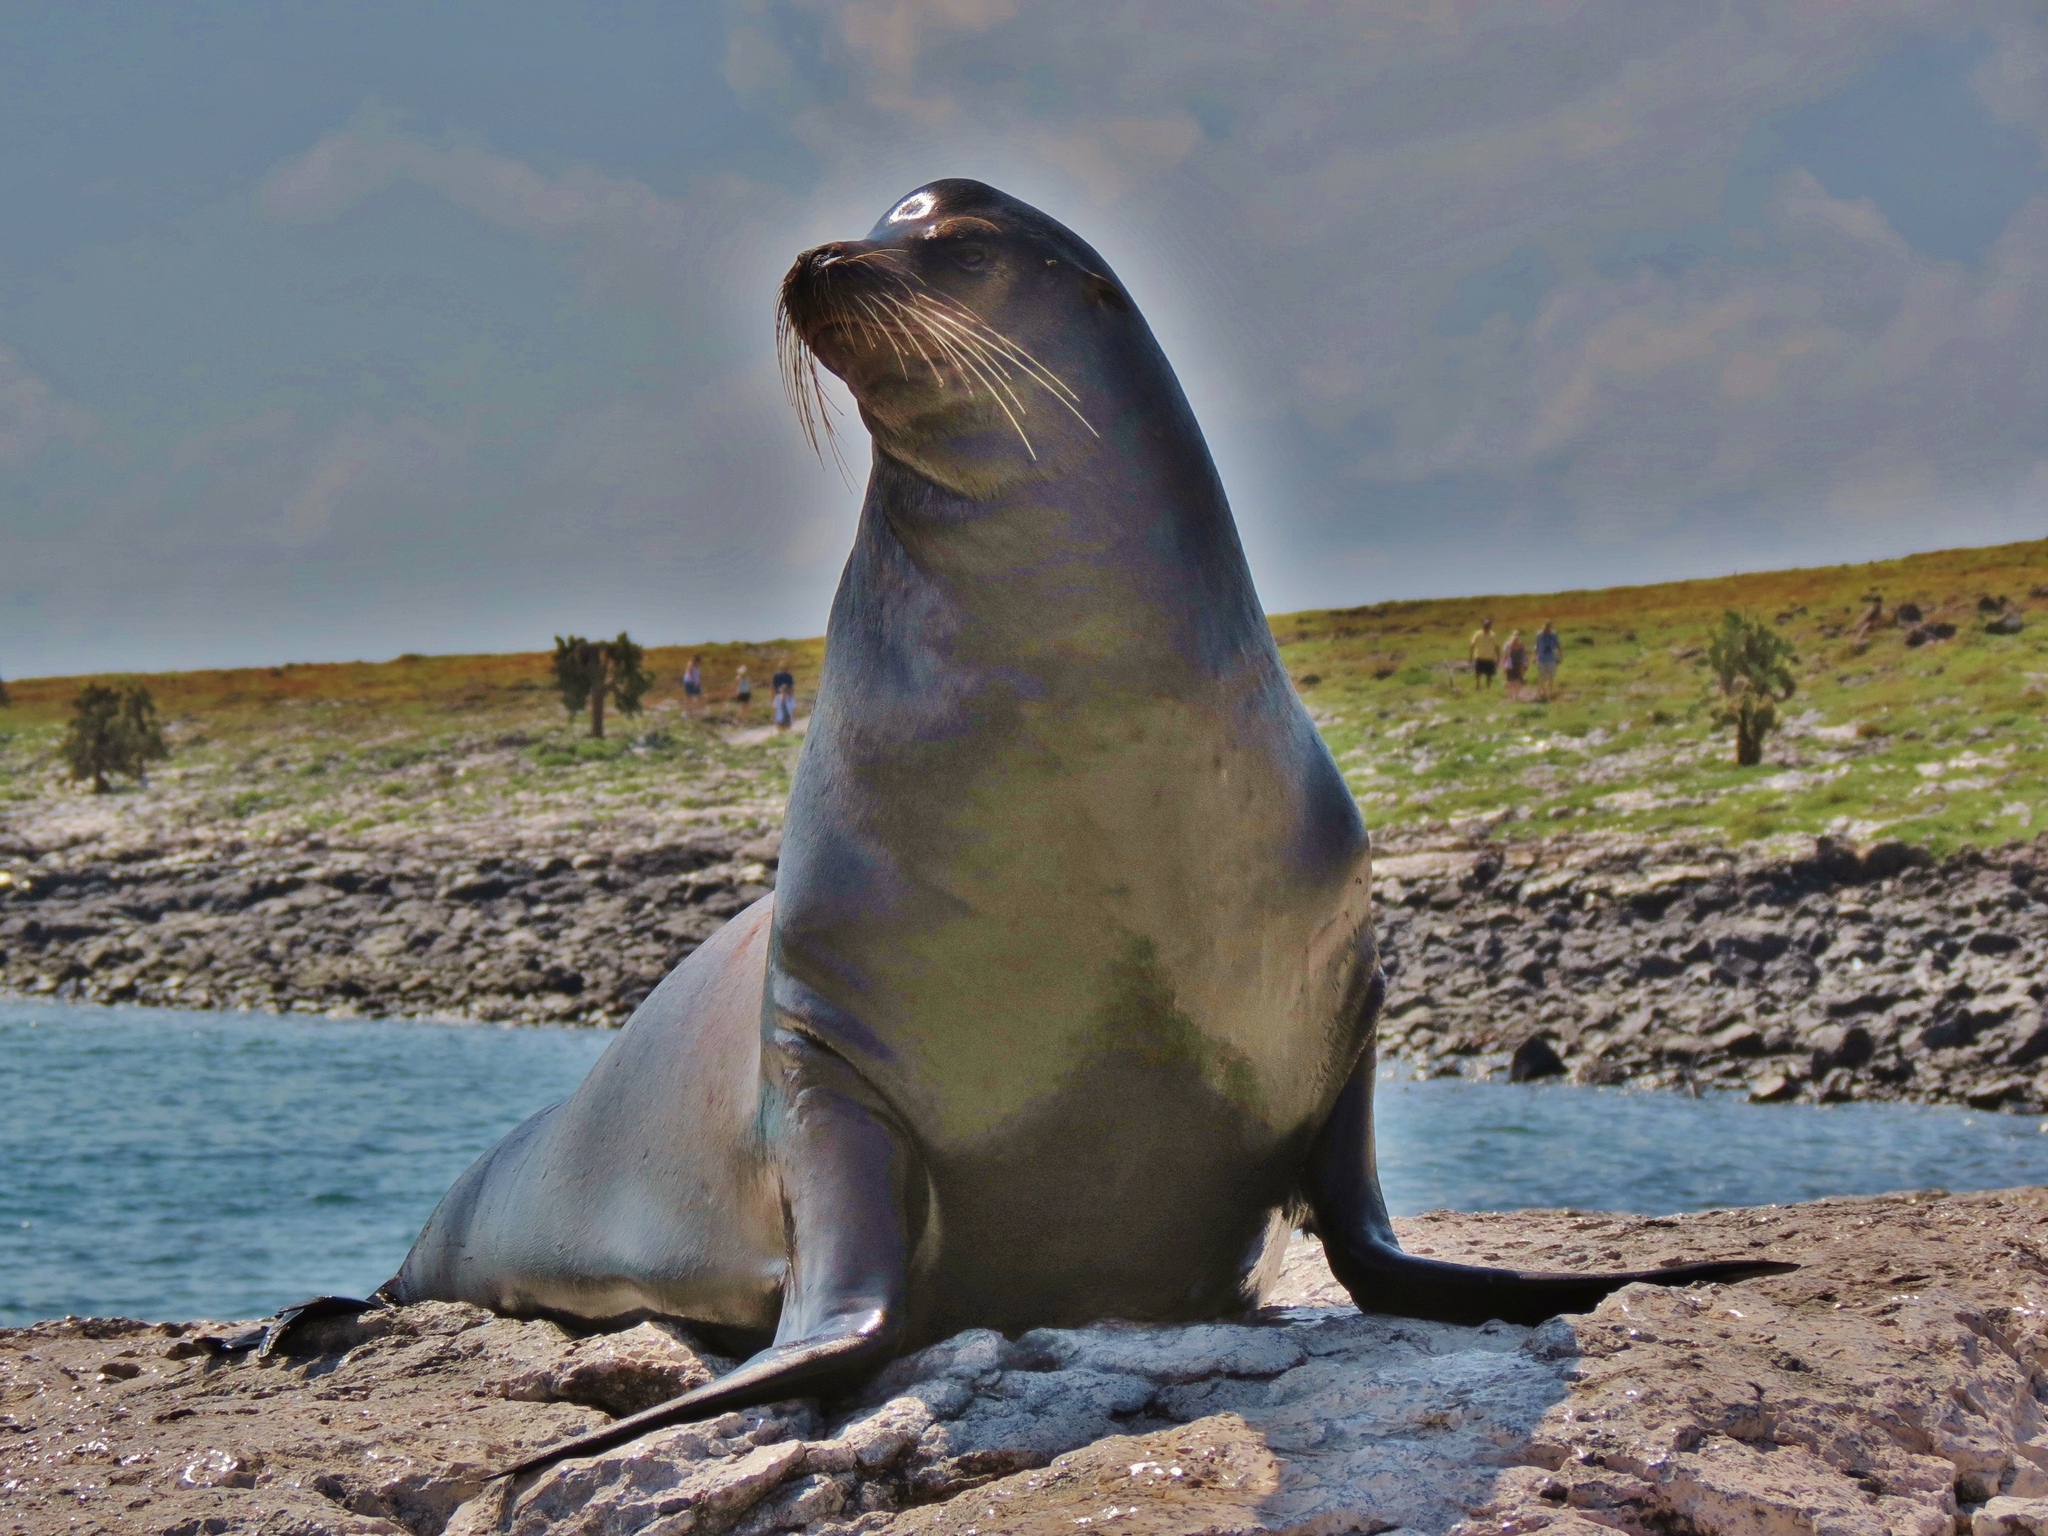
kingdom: Animalia
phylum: Chordata
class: Mammalia
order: Carnivora
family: Otariidae
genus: Zalophus
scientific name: Zalophus wollebaeki
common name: Galapagos sea lion
